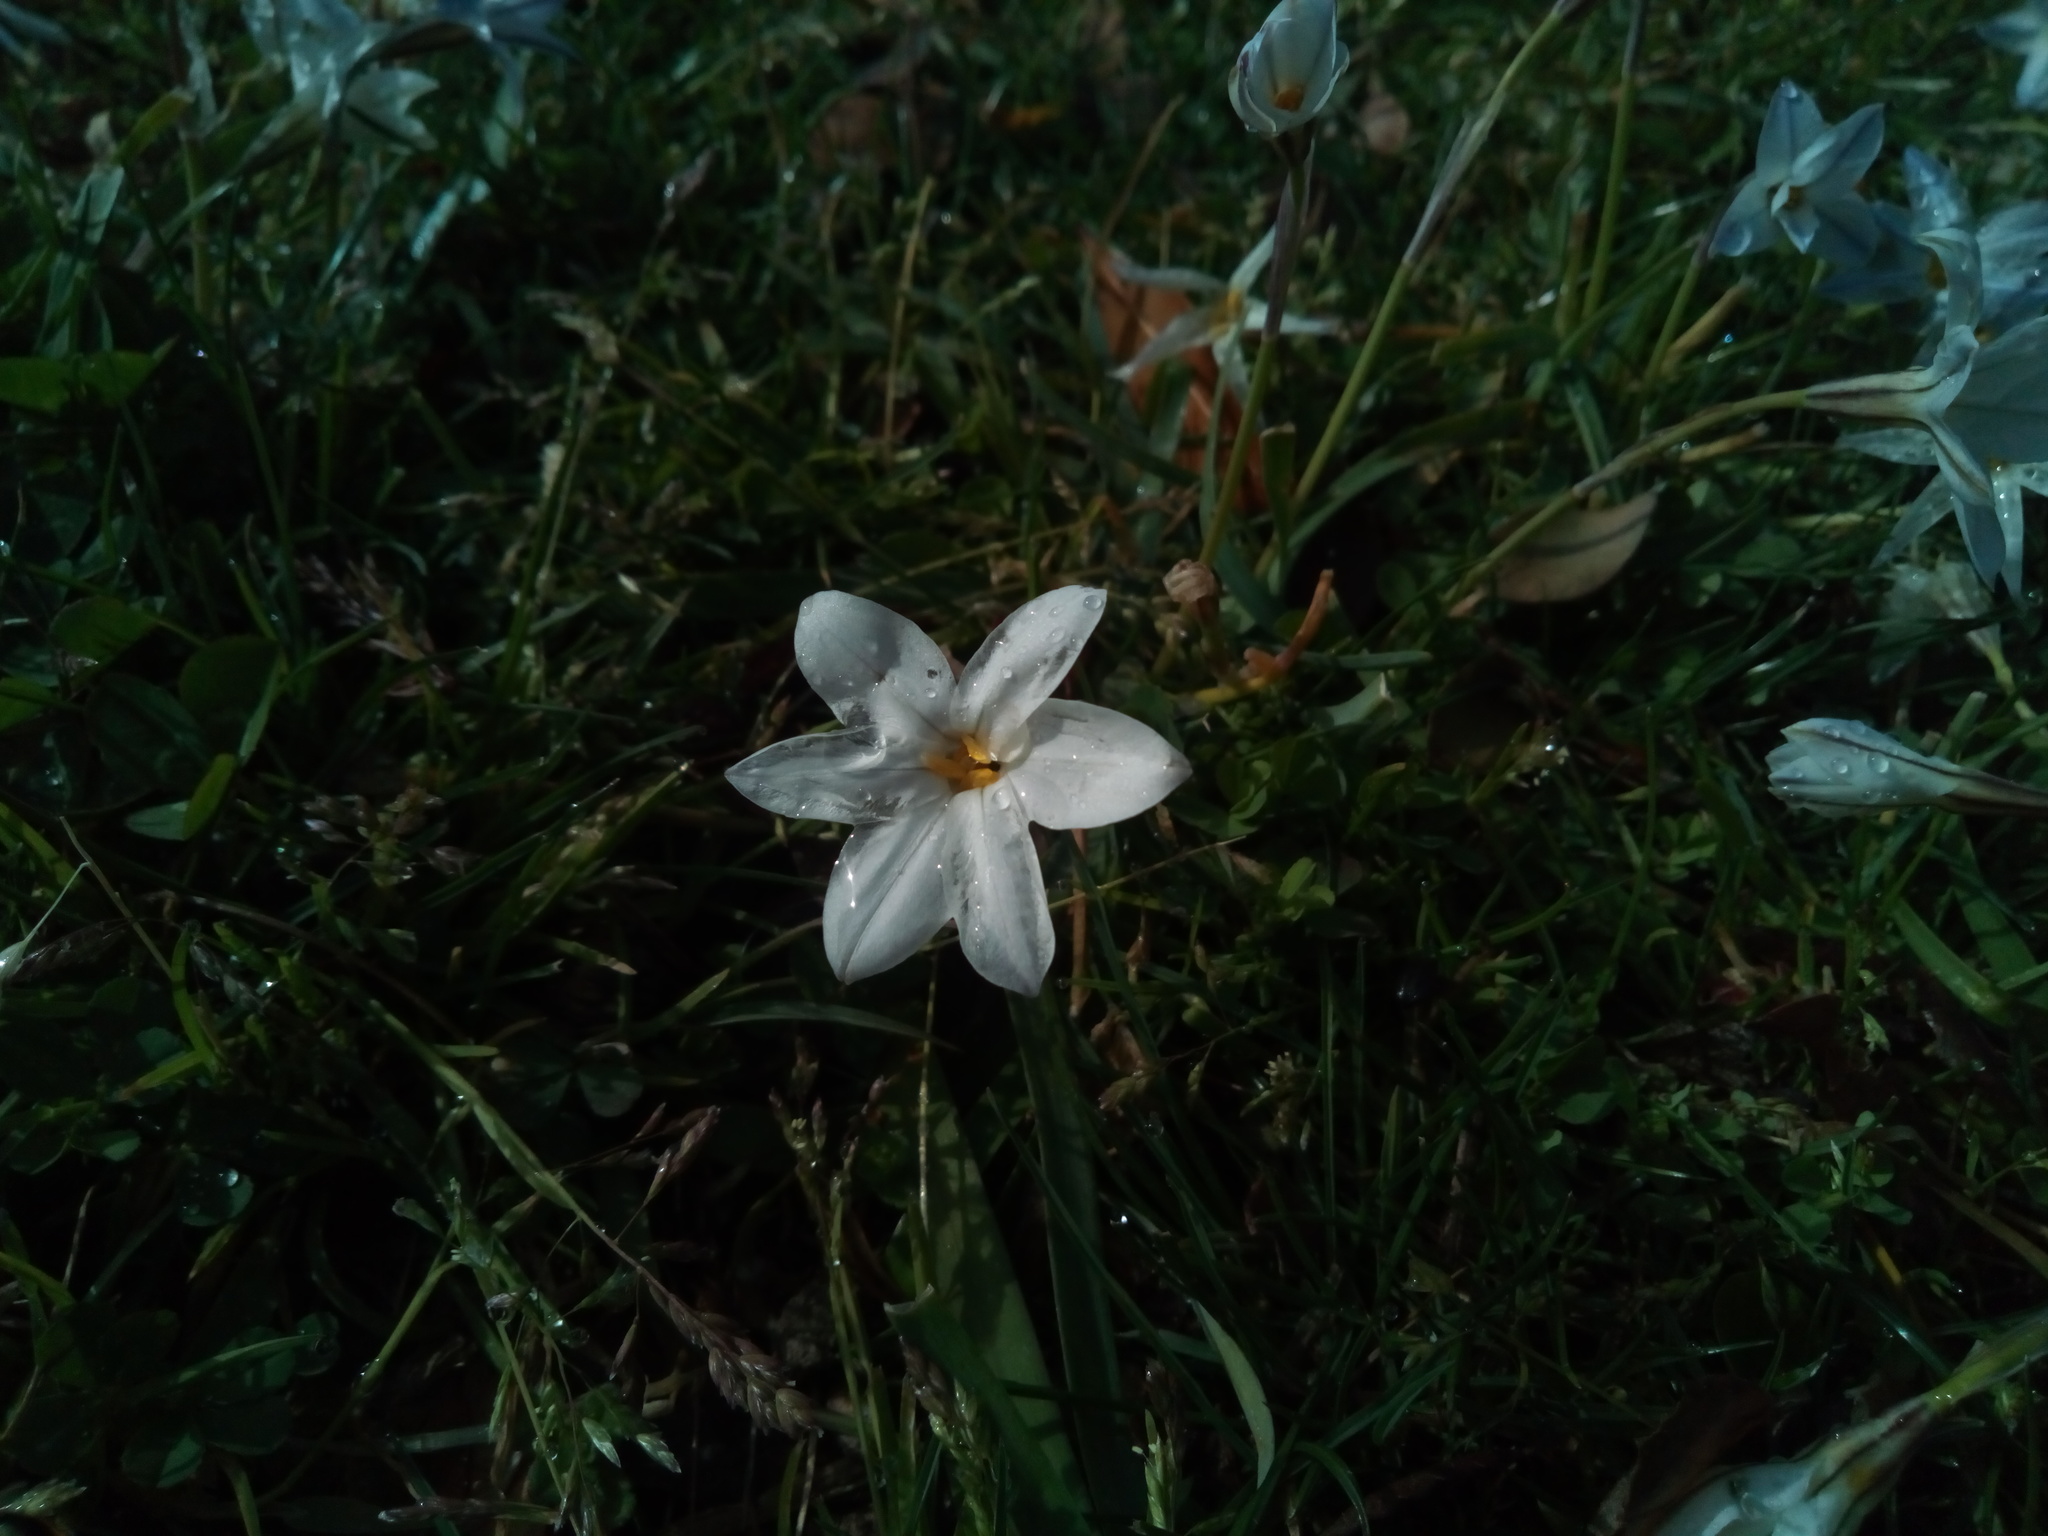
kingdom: Plantae
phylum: Tracheophyta
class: Liliopsida
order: Asparagales
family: Amaryllidaceae
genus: Ipheion
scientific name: Ipheion uniflorum
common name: Spring starflower
